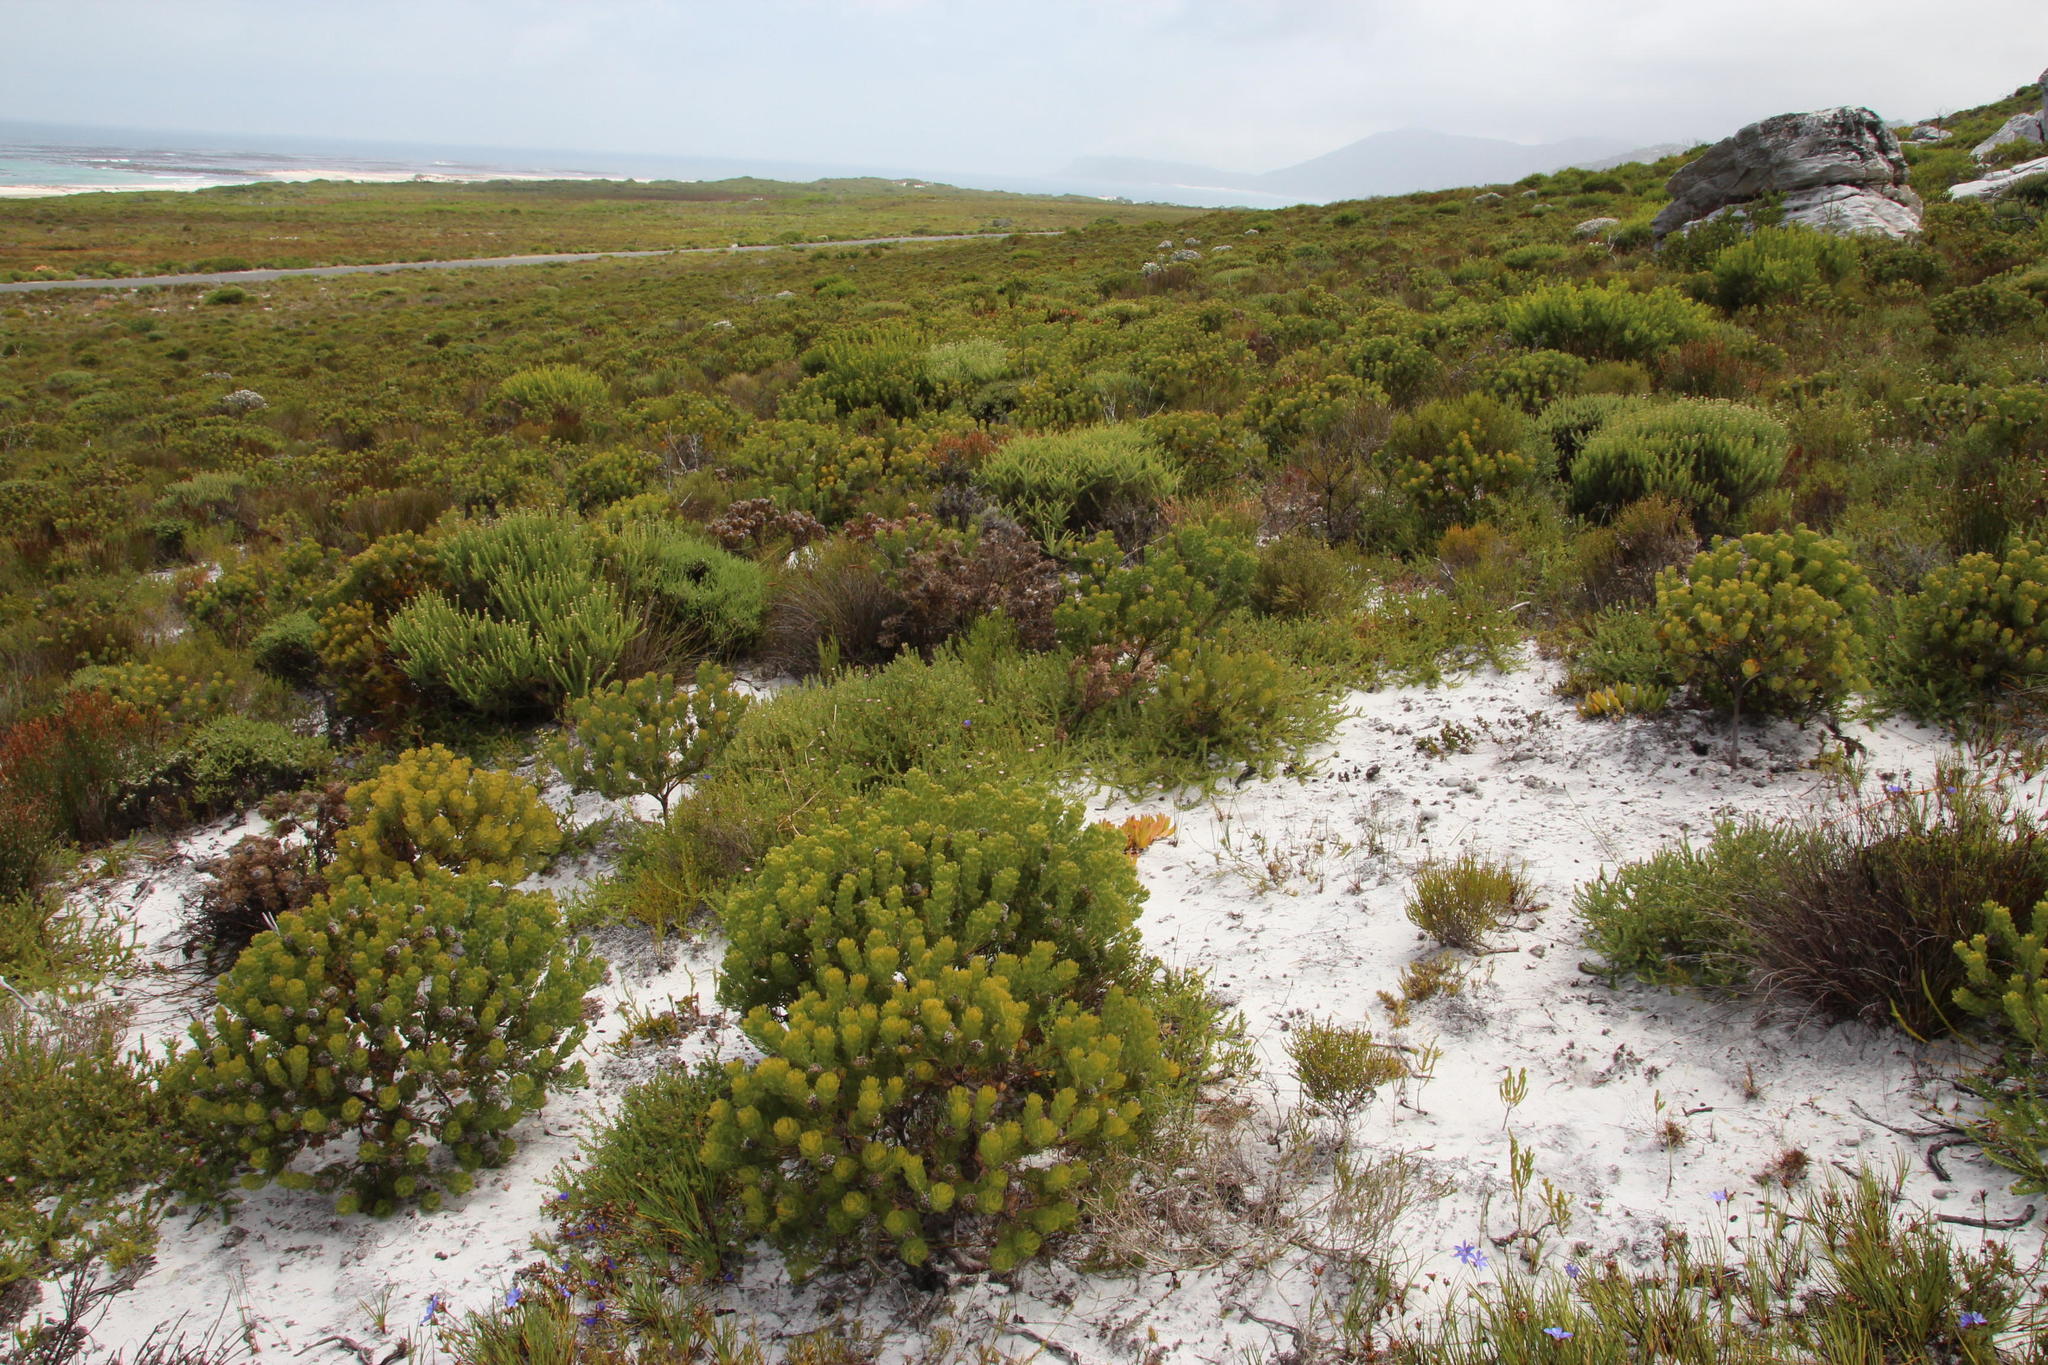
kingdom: Plantae
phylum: Tracheophyta
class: Magnoliopsida
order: Proteales
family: Proteaceae
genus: Serruria
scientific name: Serruria villosa
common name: Golden spiderhead
